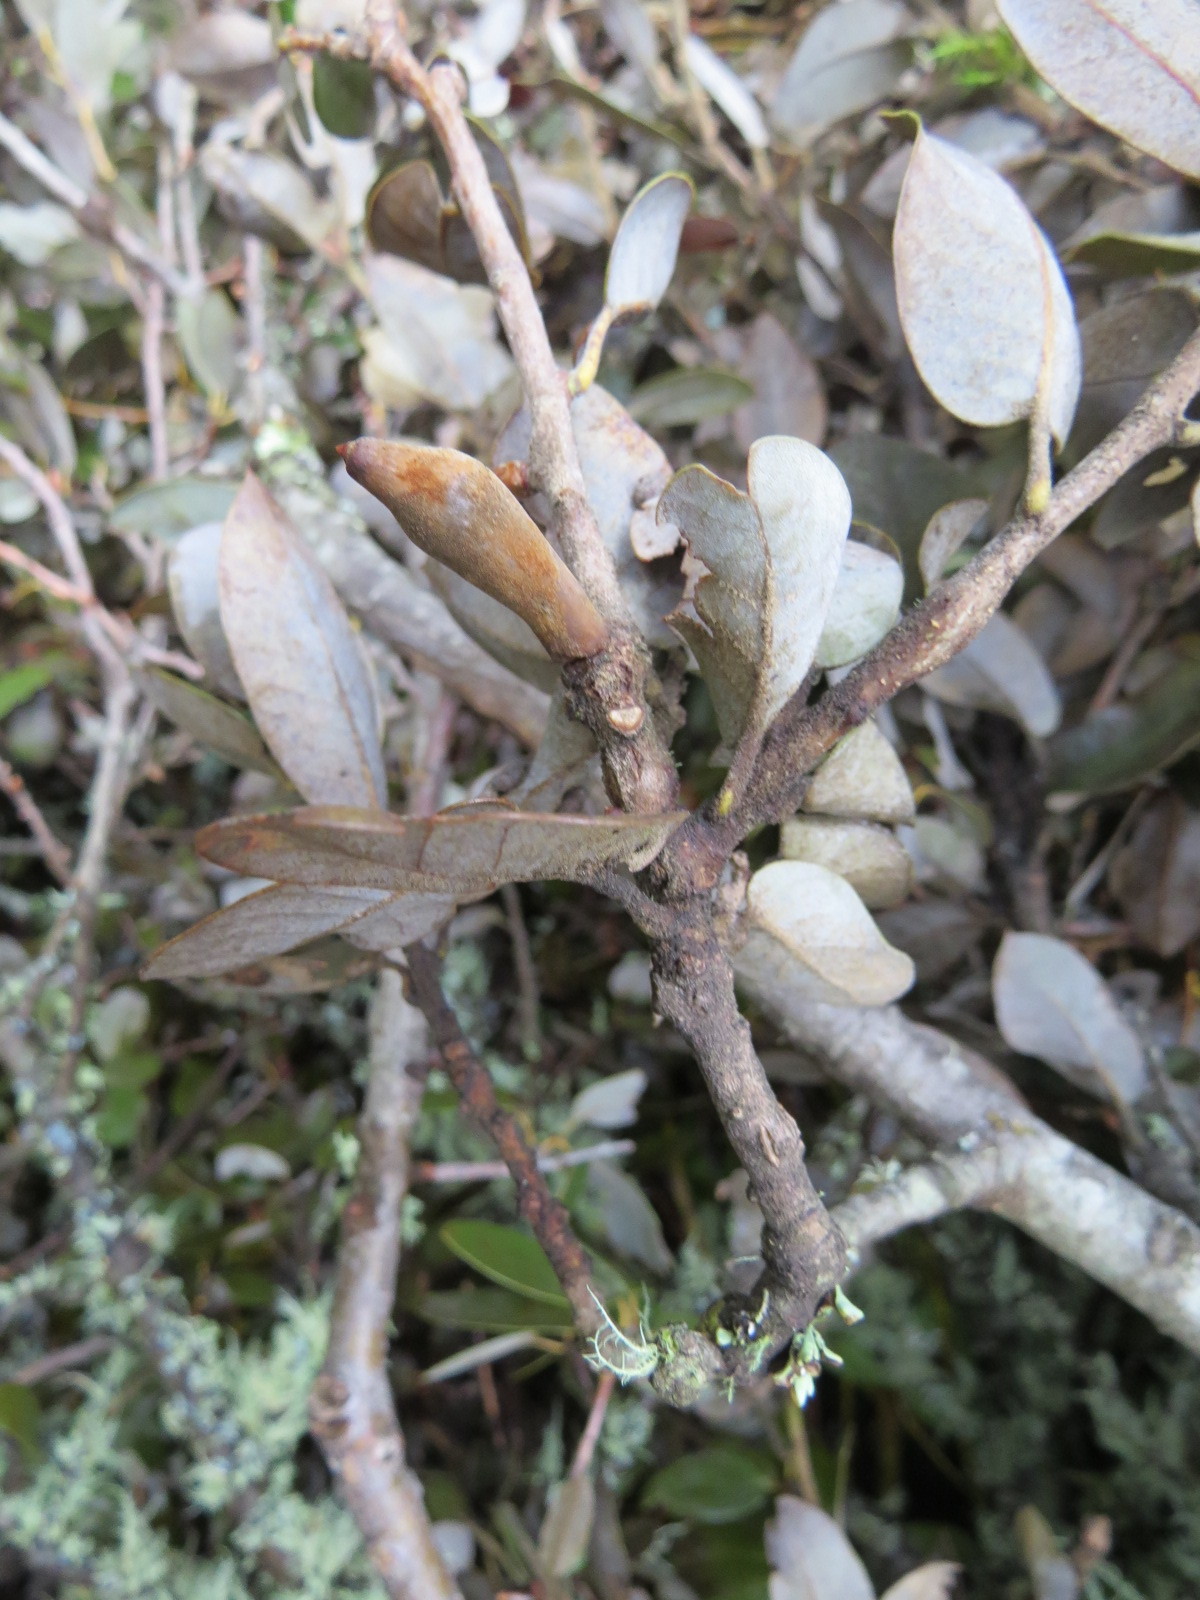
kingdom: Animalia
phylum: Arthropoda
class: Insecta
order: Hymenoptera
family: Cynipidae
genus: Heteroecus
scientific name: Heteroecus
